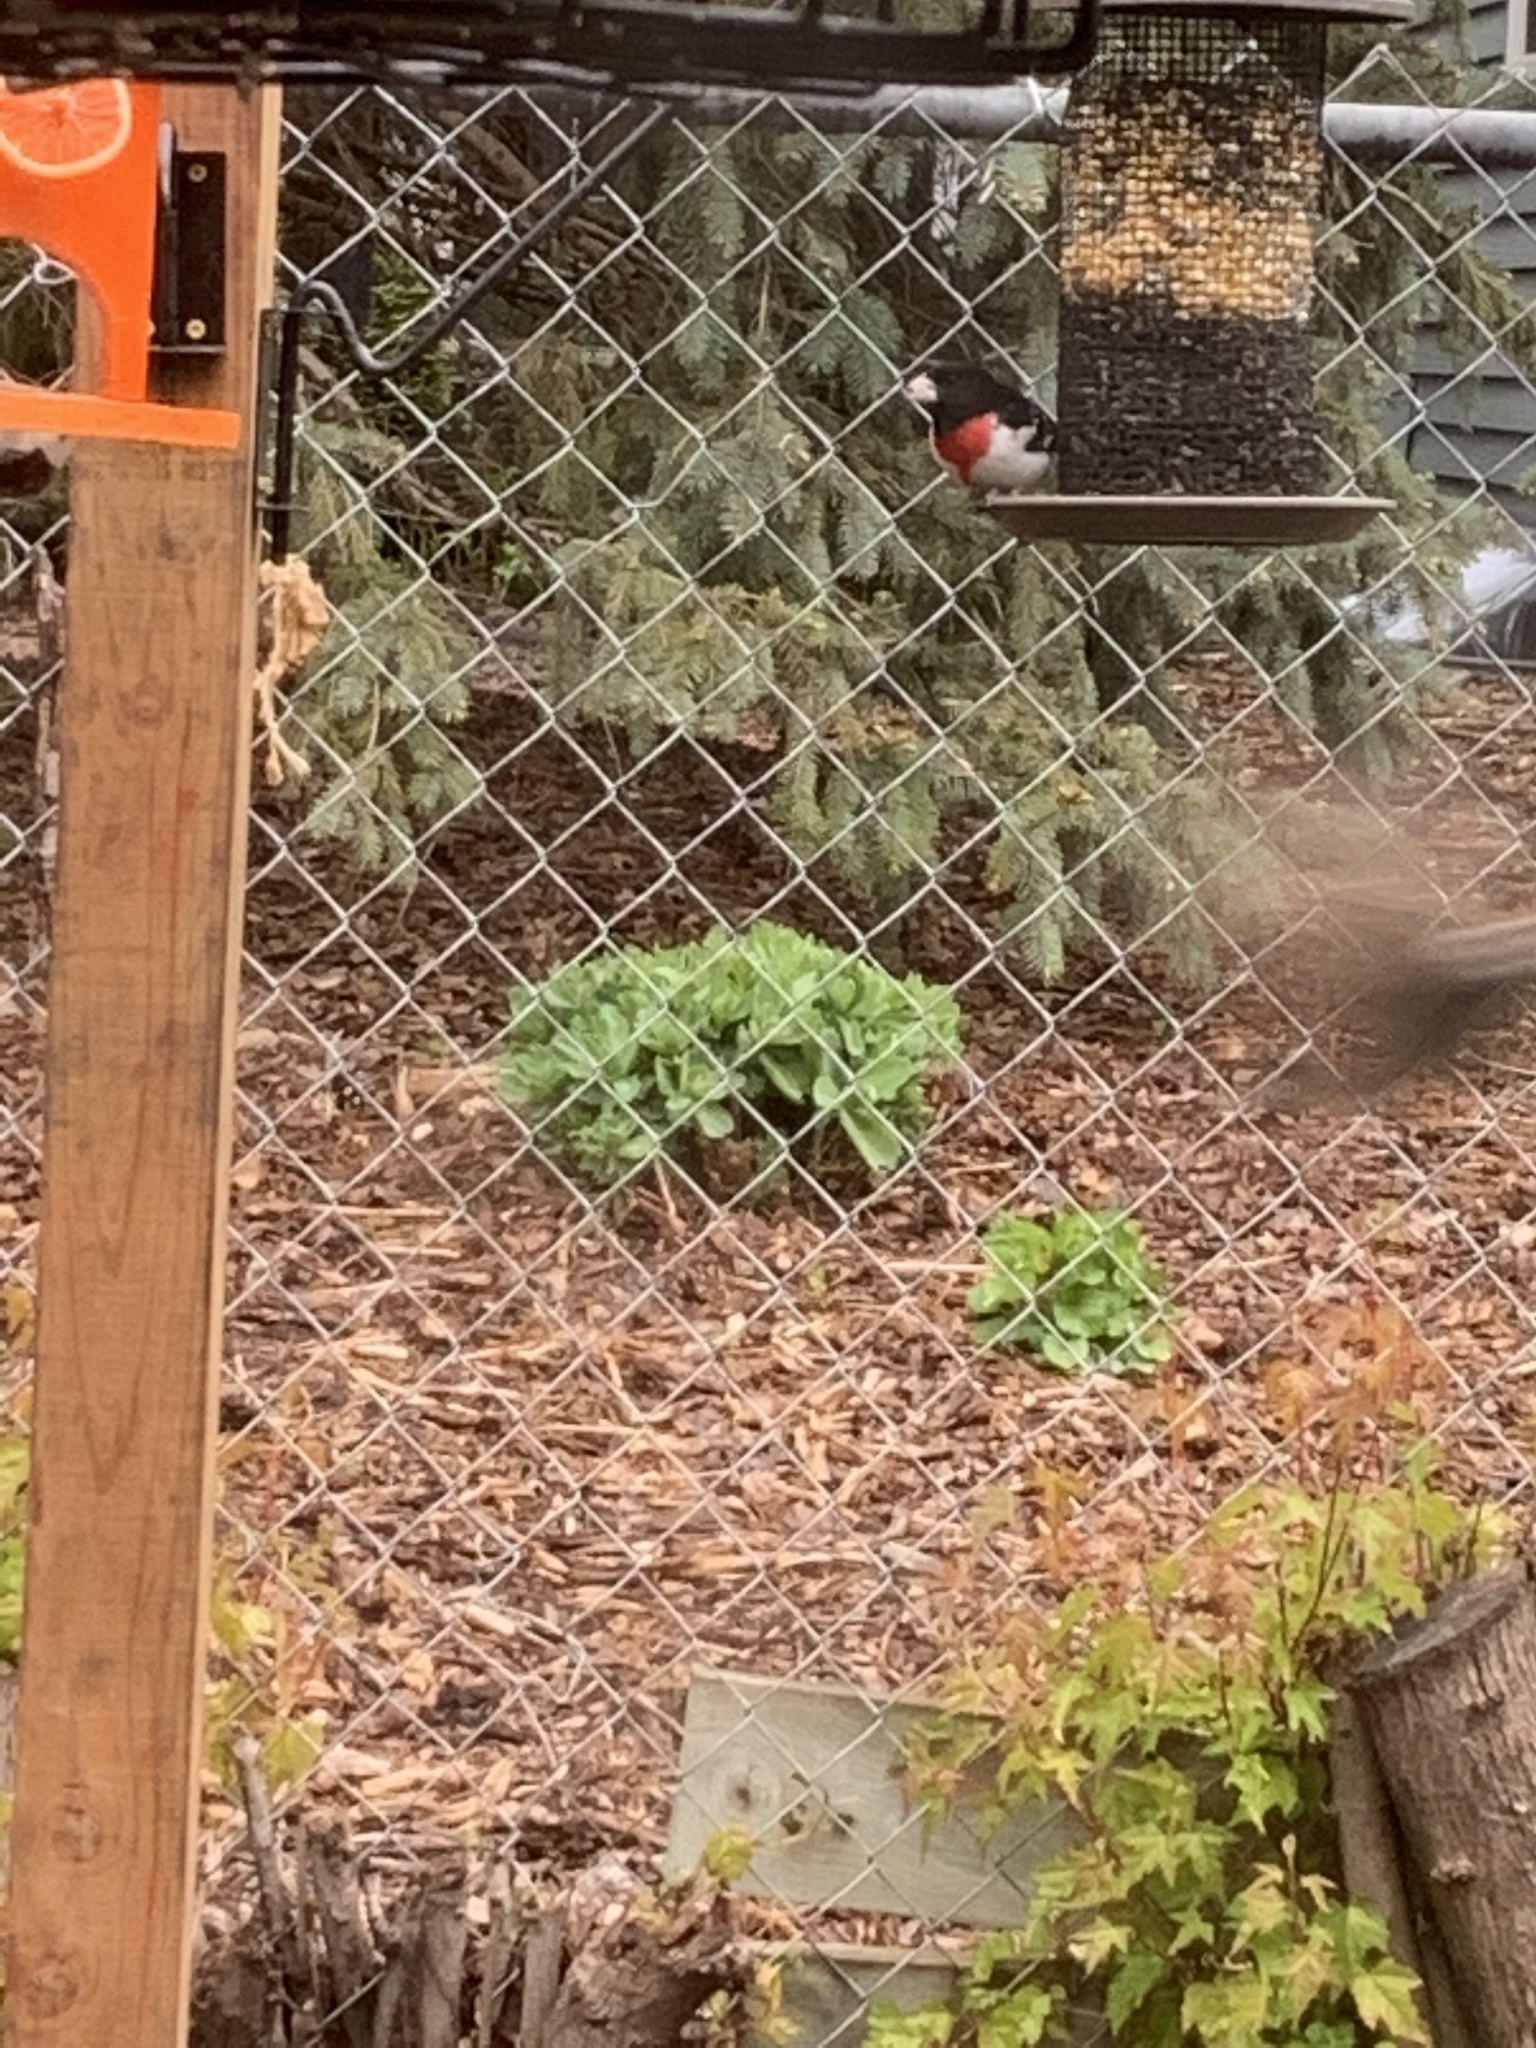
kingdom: Animalia
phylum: Chordata
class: Aves
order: Passeriformes
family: Cardinalidae
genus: Pheucticus
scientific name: Pheucticus ludovicianus
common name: Rose-breasted grosbeak
